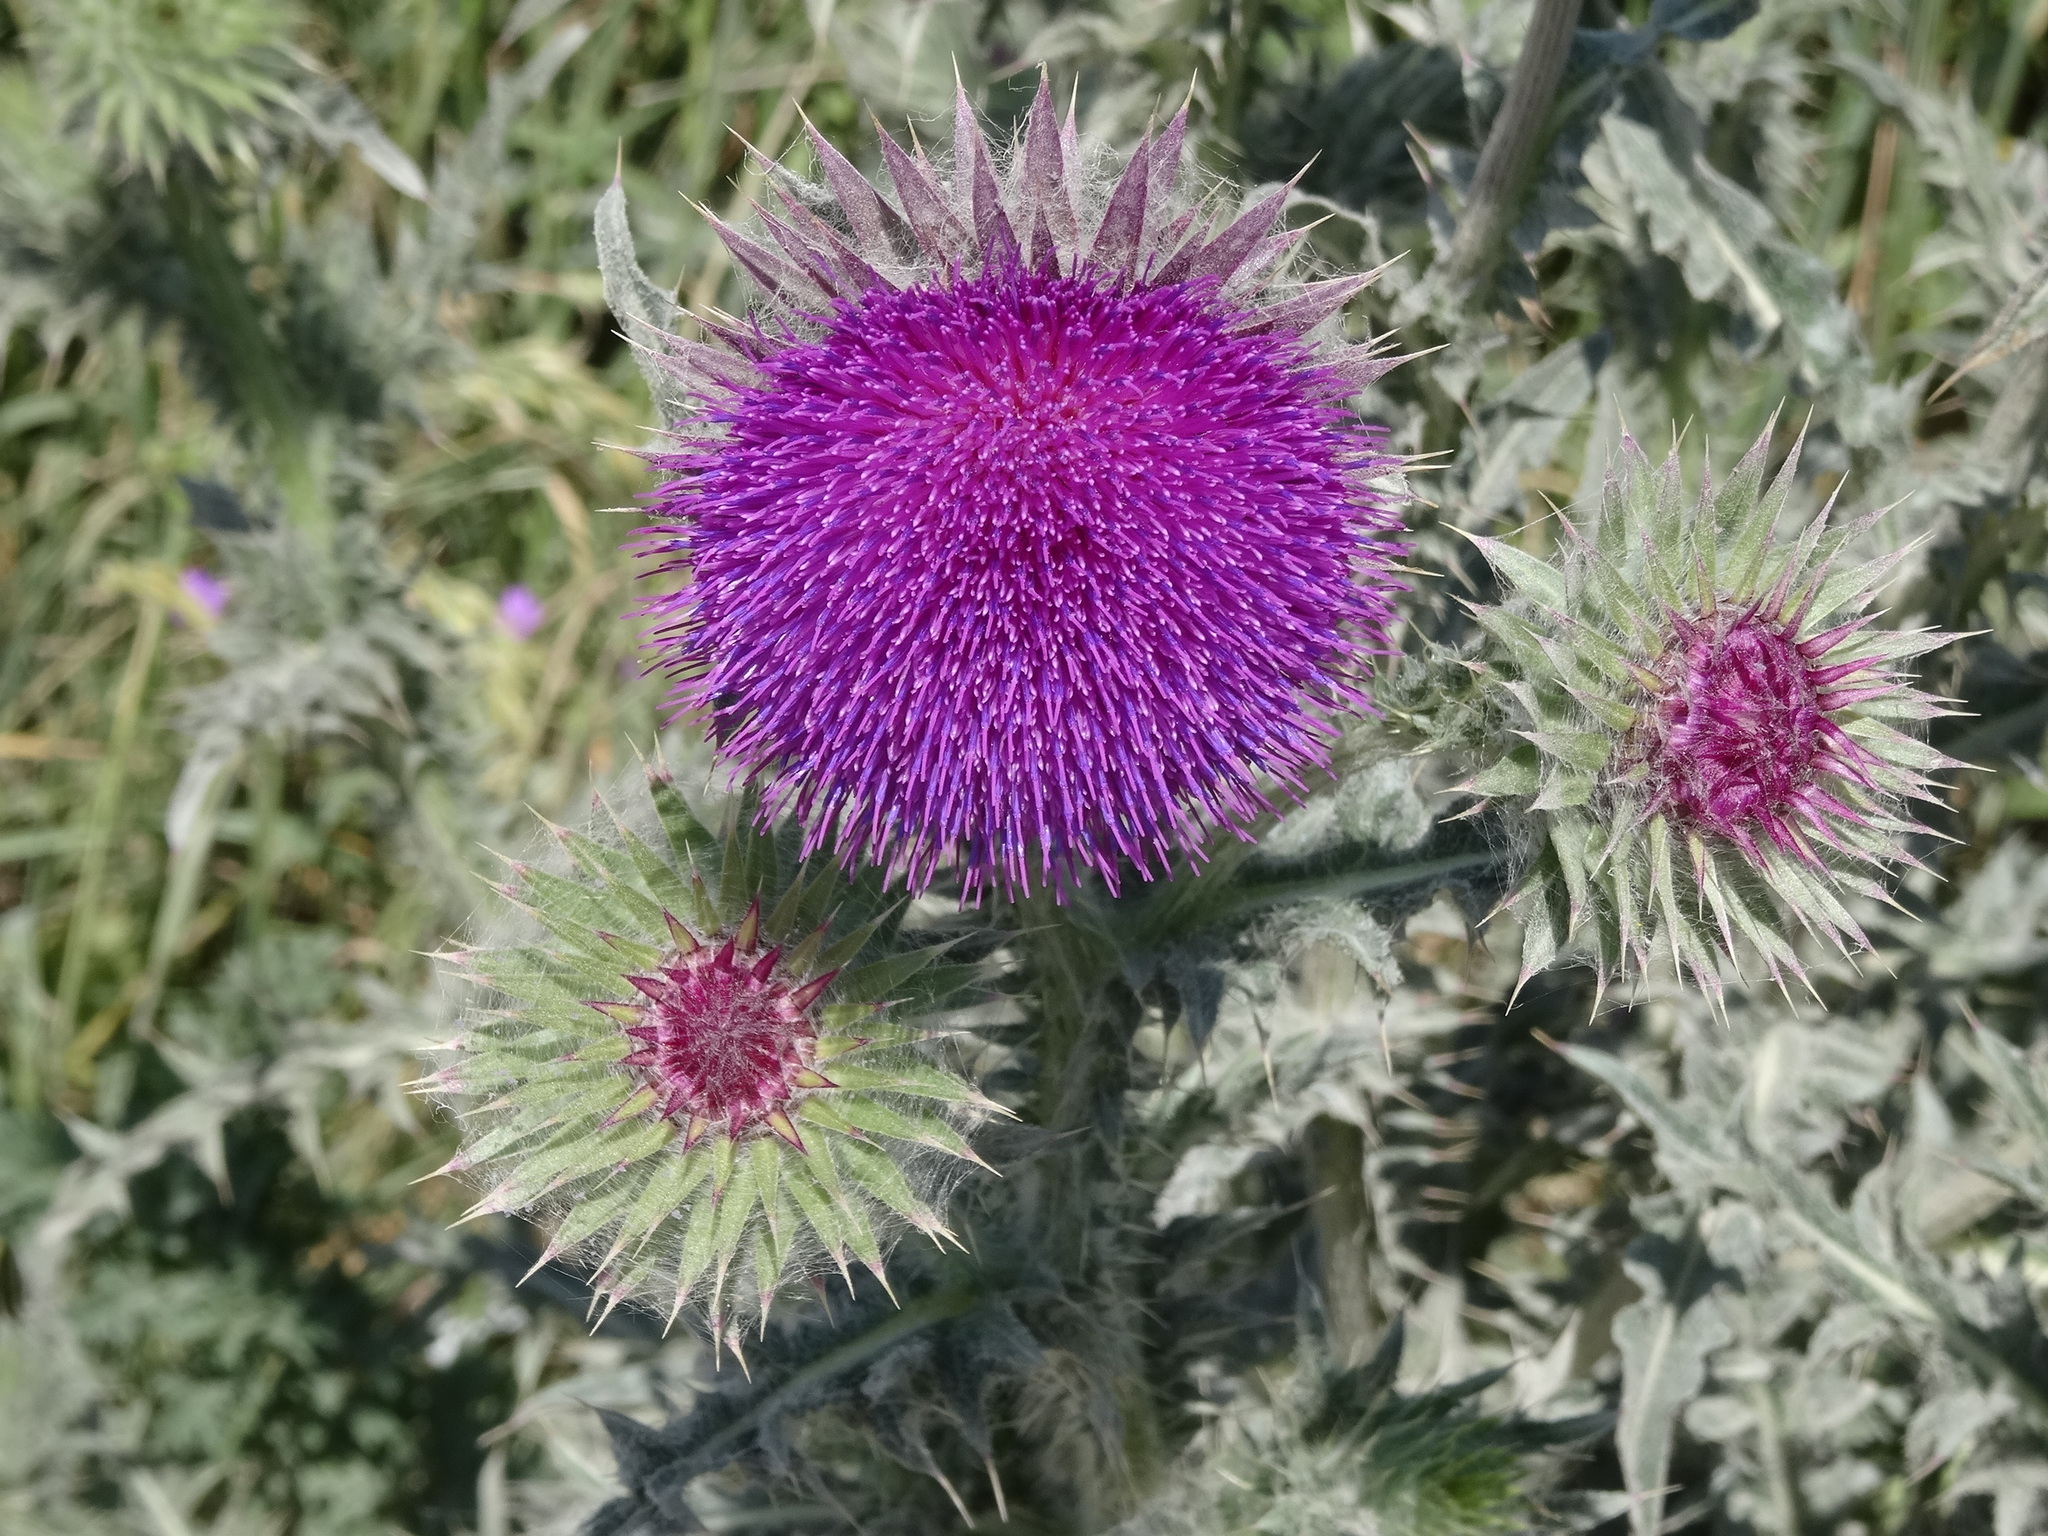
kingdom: Plantae
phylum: Tracheophyta
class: Magnoliopsida
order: Asterales
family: Asteraceae
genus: Carduus
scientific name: Carduus nutans
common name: Musk thistle
